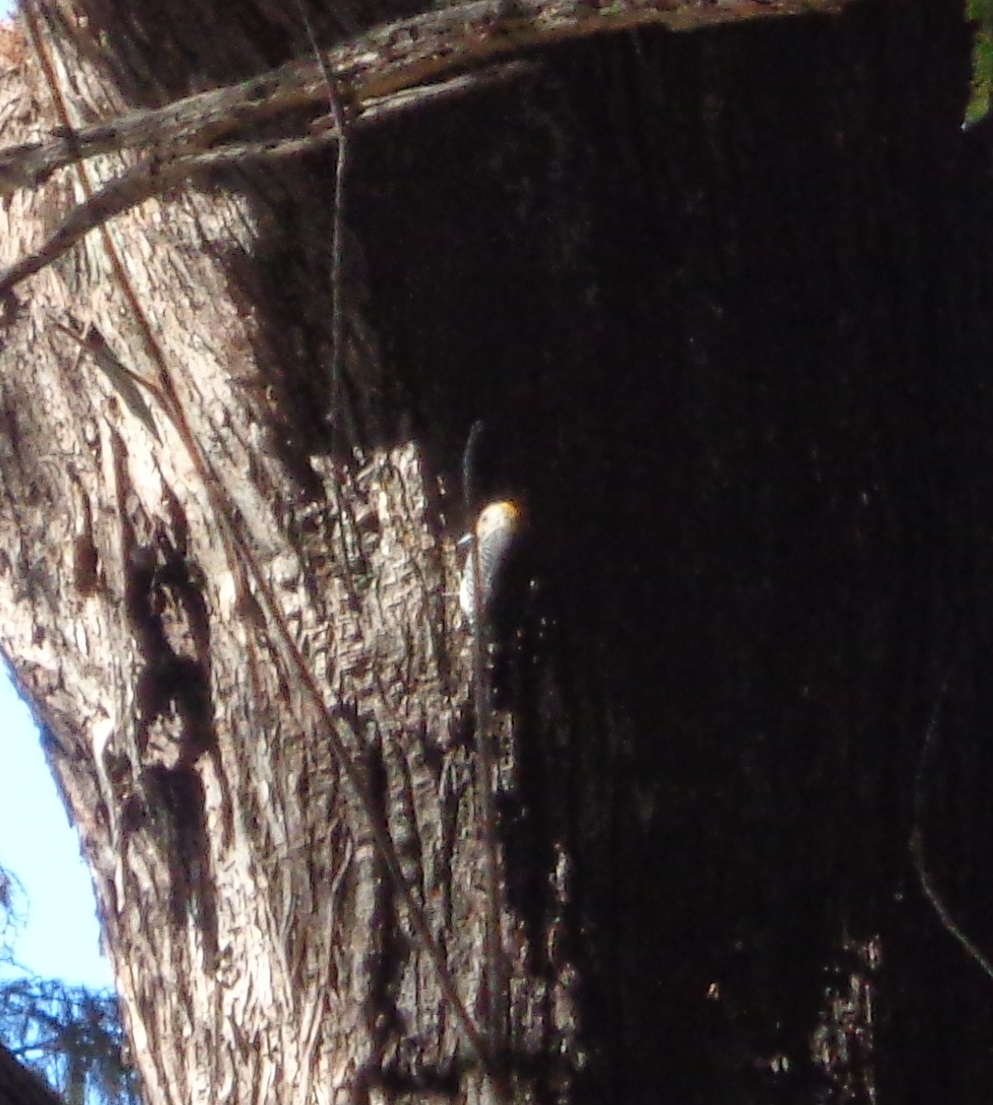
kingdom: Animalia
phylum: Chordata
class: Aves
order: Piciformes
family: Picidae
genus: Melanerpes
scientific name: Melanerpes aurifrons
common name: Golden-fronted woodpecker
